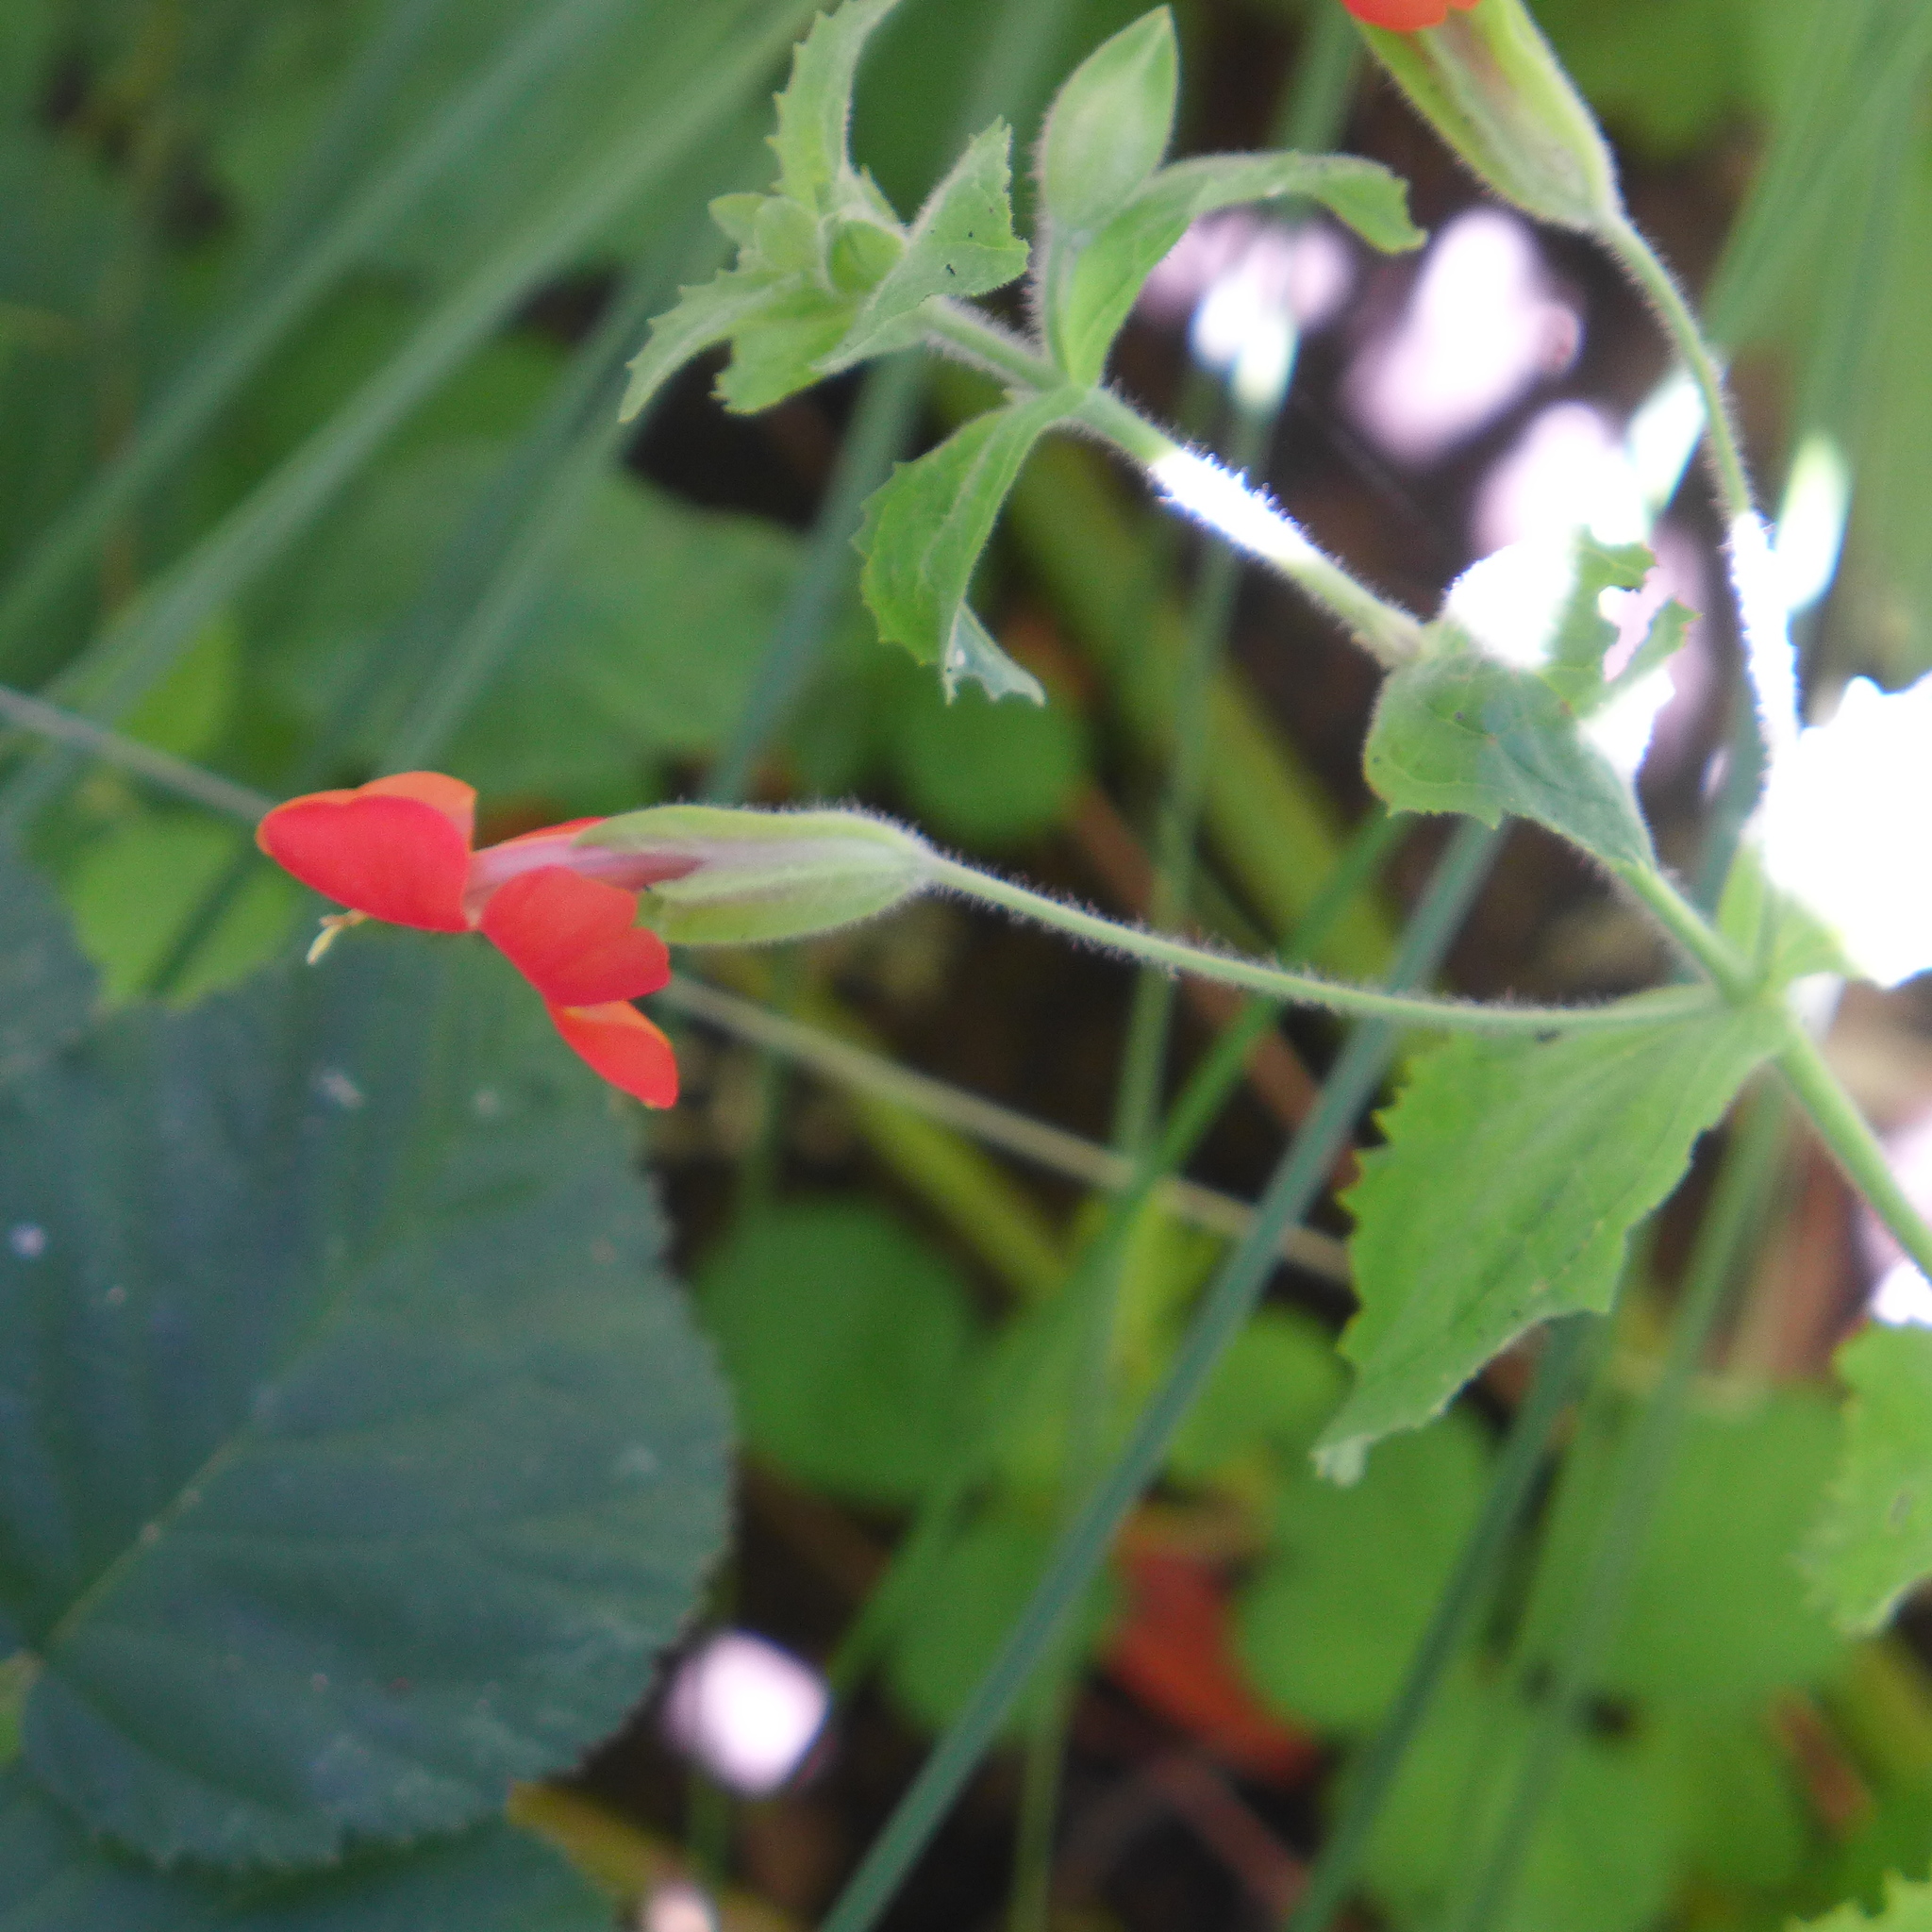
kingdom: Plantae
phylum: Tracheophyta
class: Magnoliopsida
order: Lamiales
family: Phrymaceae
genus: Erythranthe
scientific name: Erythranthe cardinalis
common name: Scarlet monkey-flower
